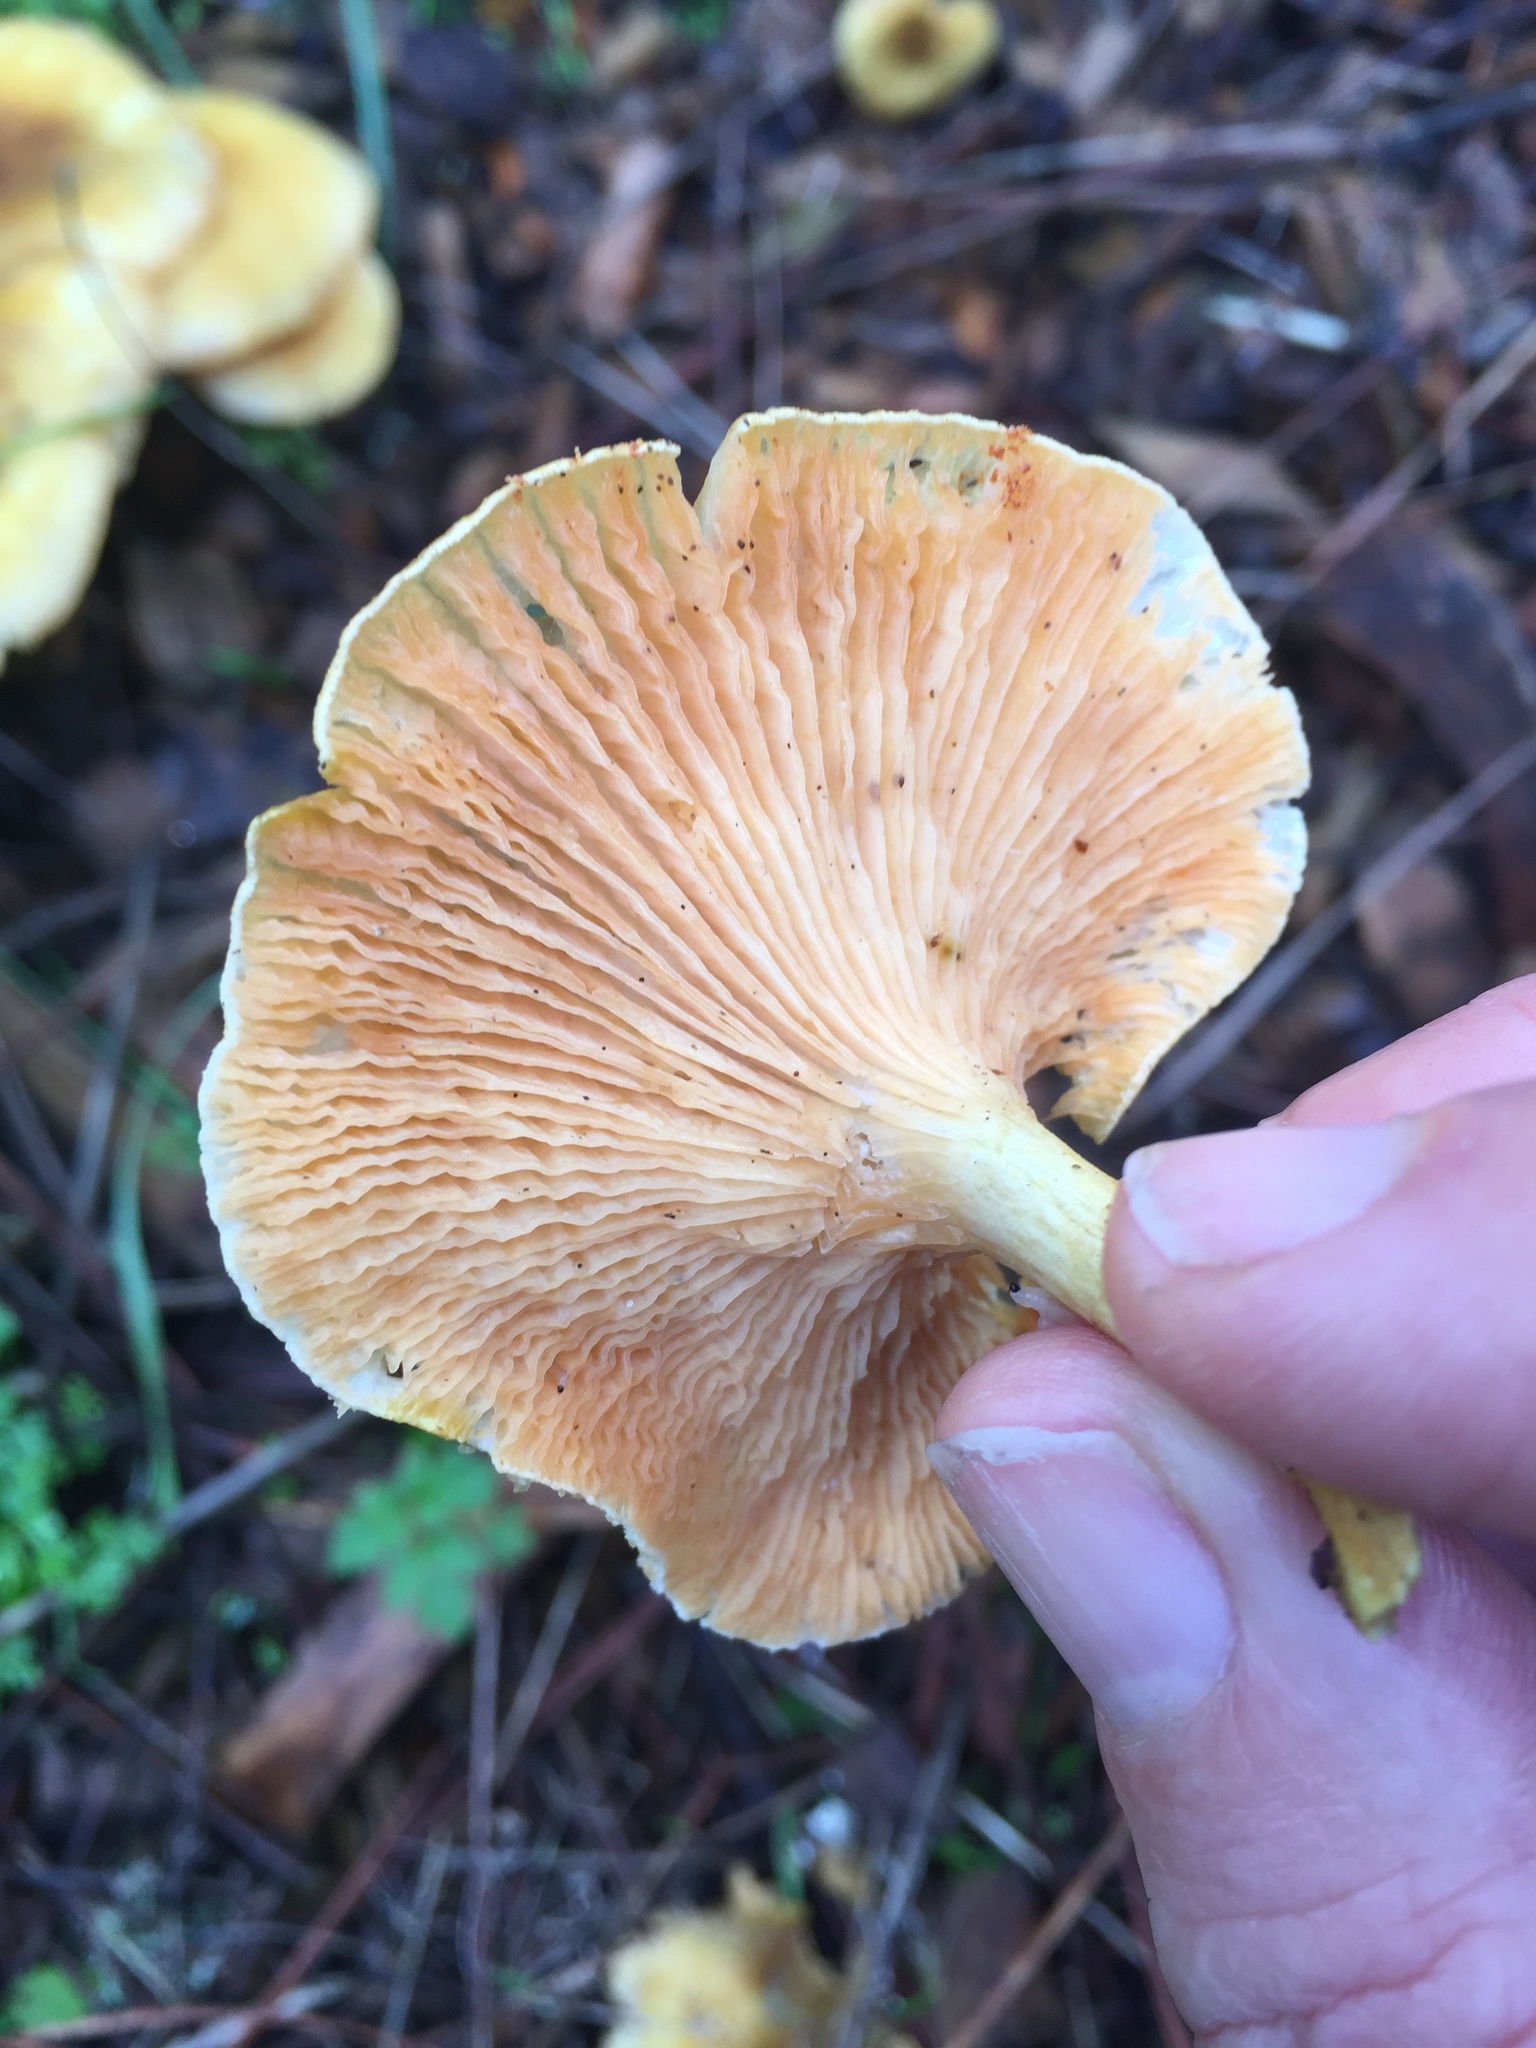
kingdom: Fungi
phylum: Basidiomycota
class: Agaricomycetes
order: Boletales
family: Hygrophoropsidaceae
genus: Hygrophoropsis
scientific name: Hygrophoropsis aurantiaca
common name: False chanterelle
